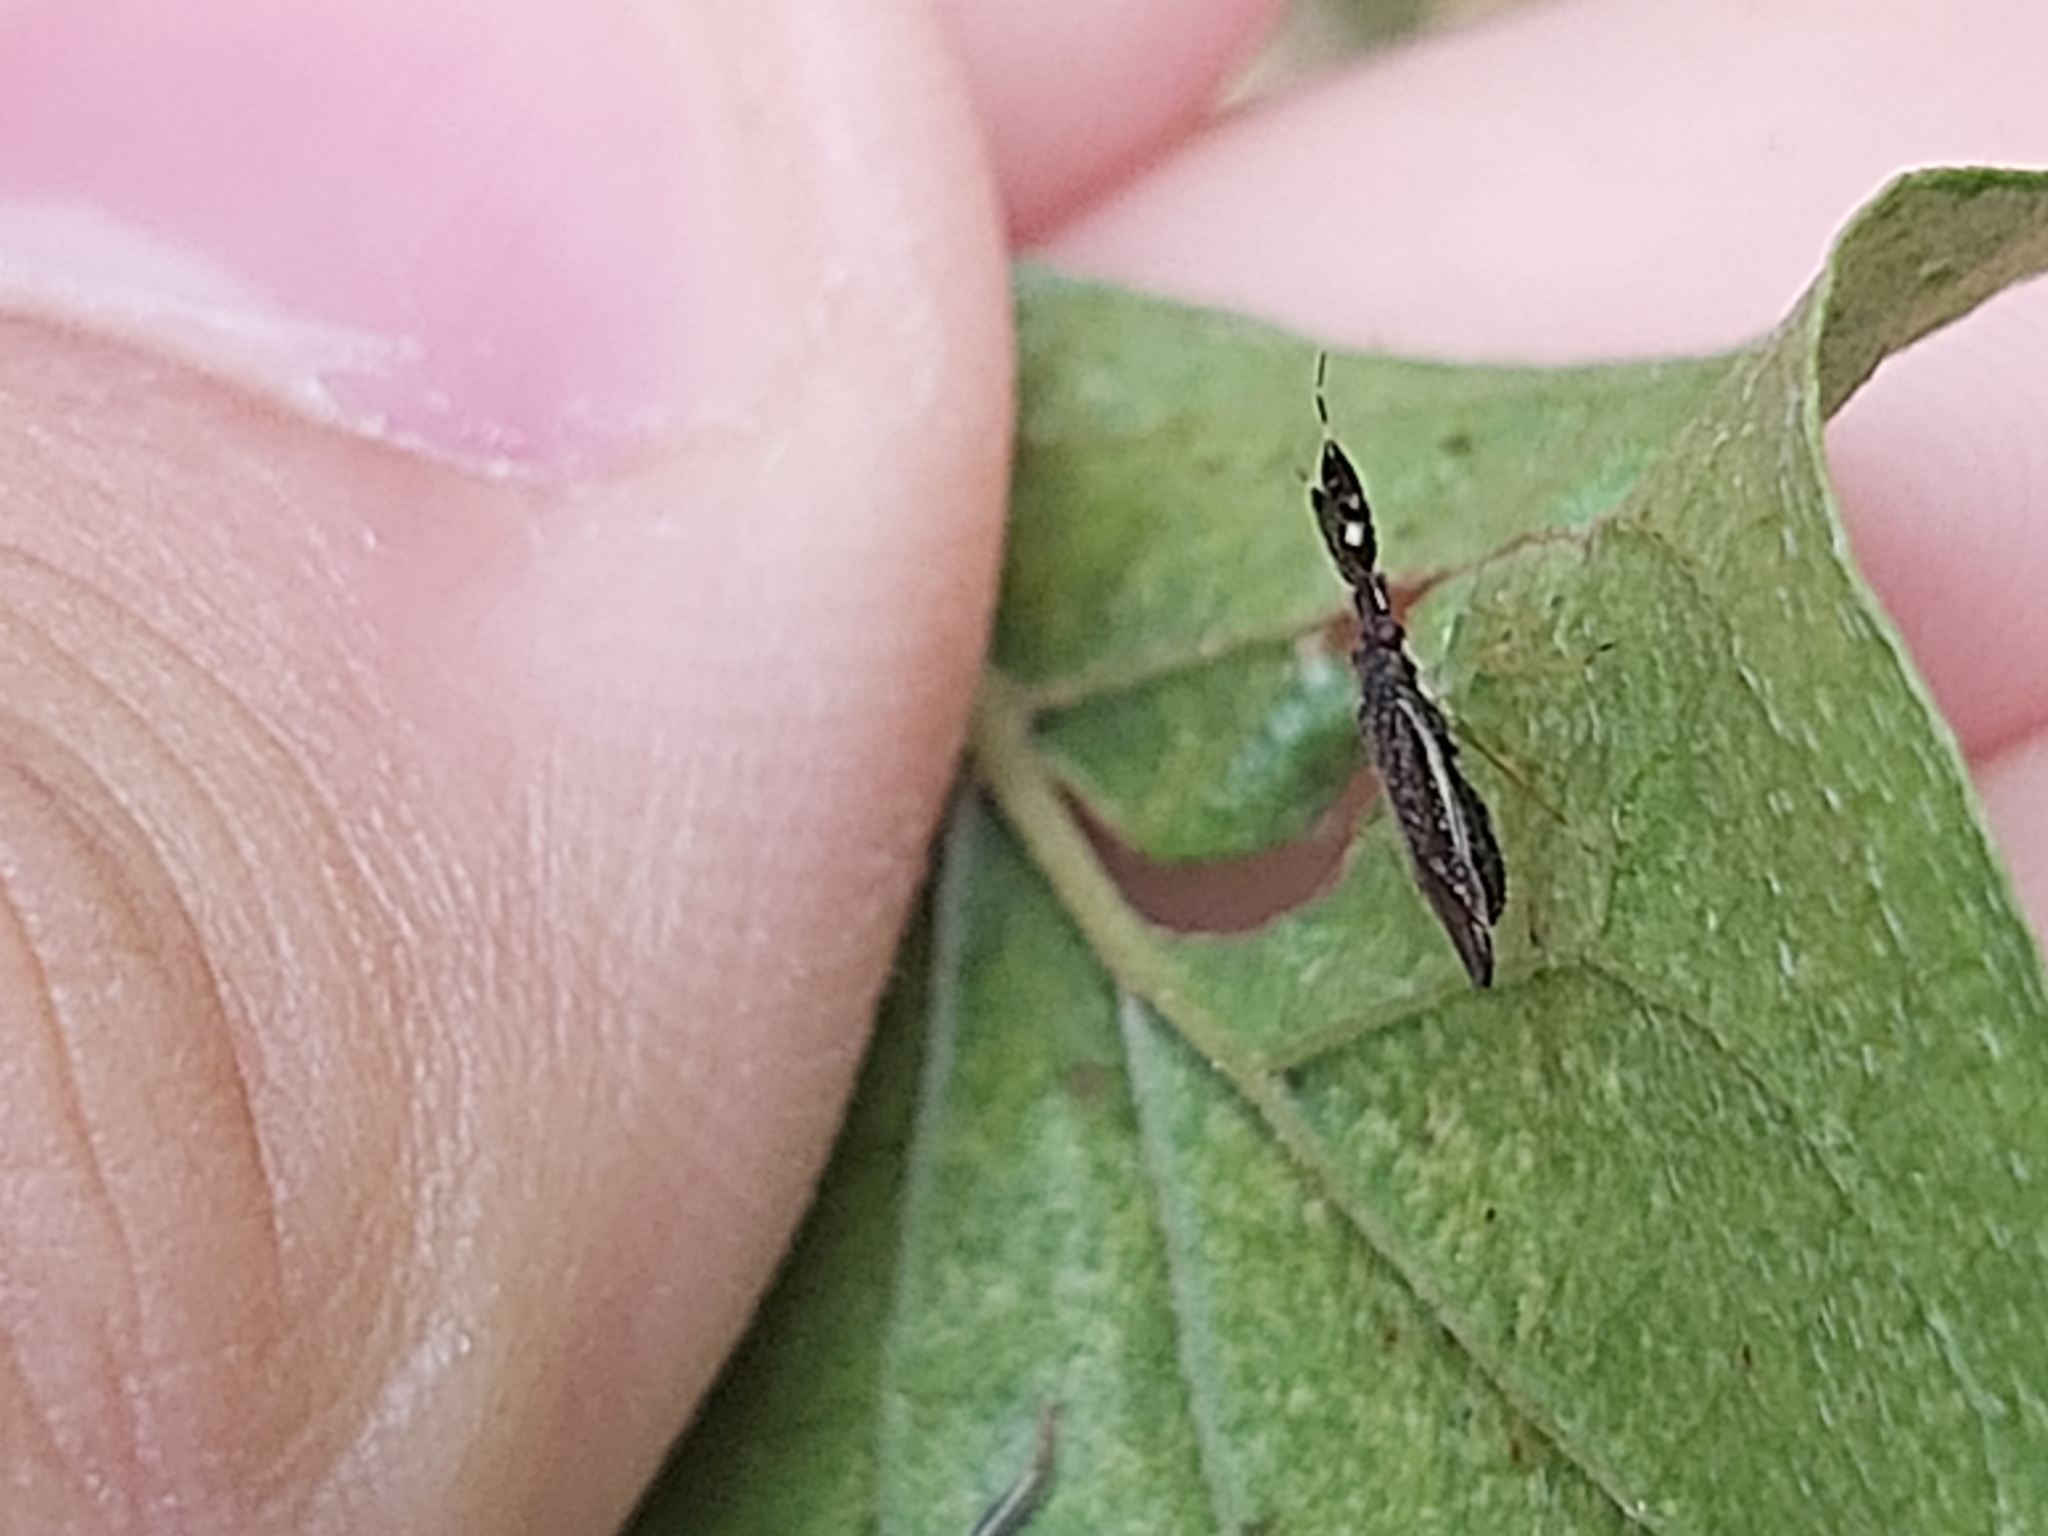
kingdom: Animalia
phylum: Arthropoda
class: Insecta
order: Hemiptera
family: Miridae
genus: Heterotoma
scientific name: Heterotoma planicornis
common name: Plant bug
